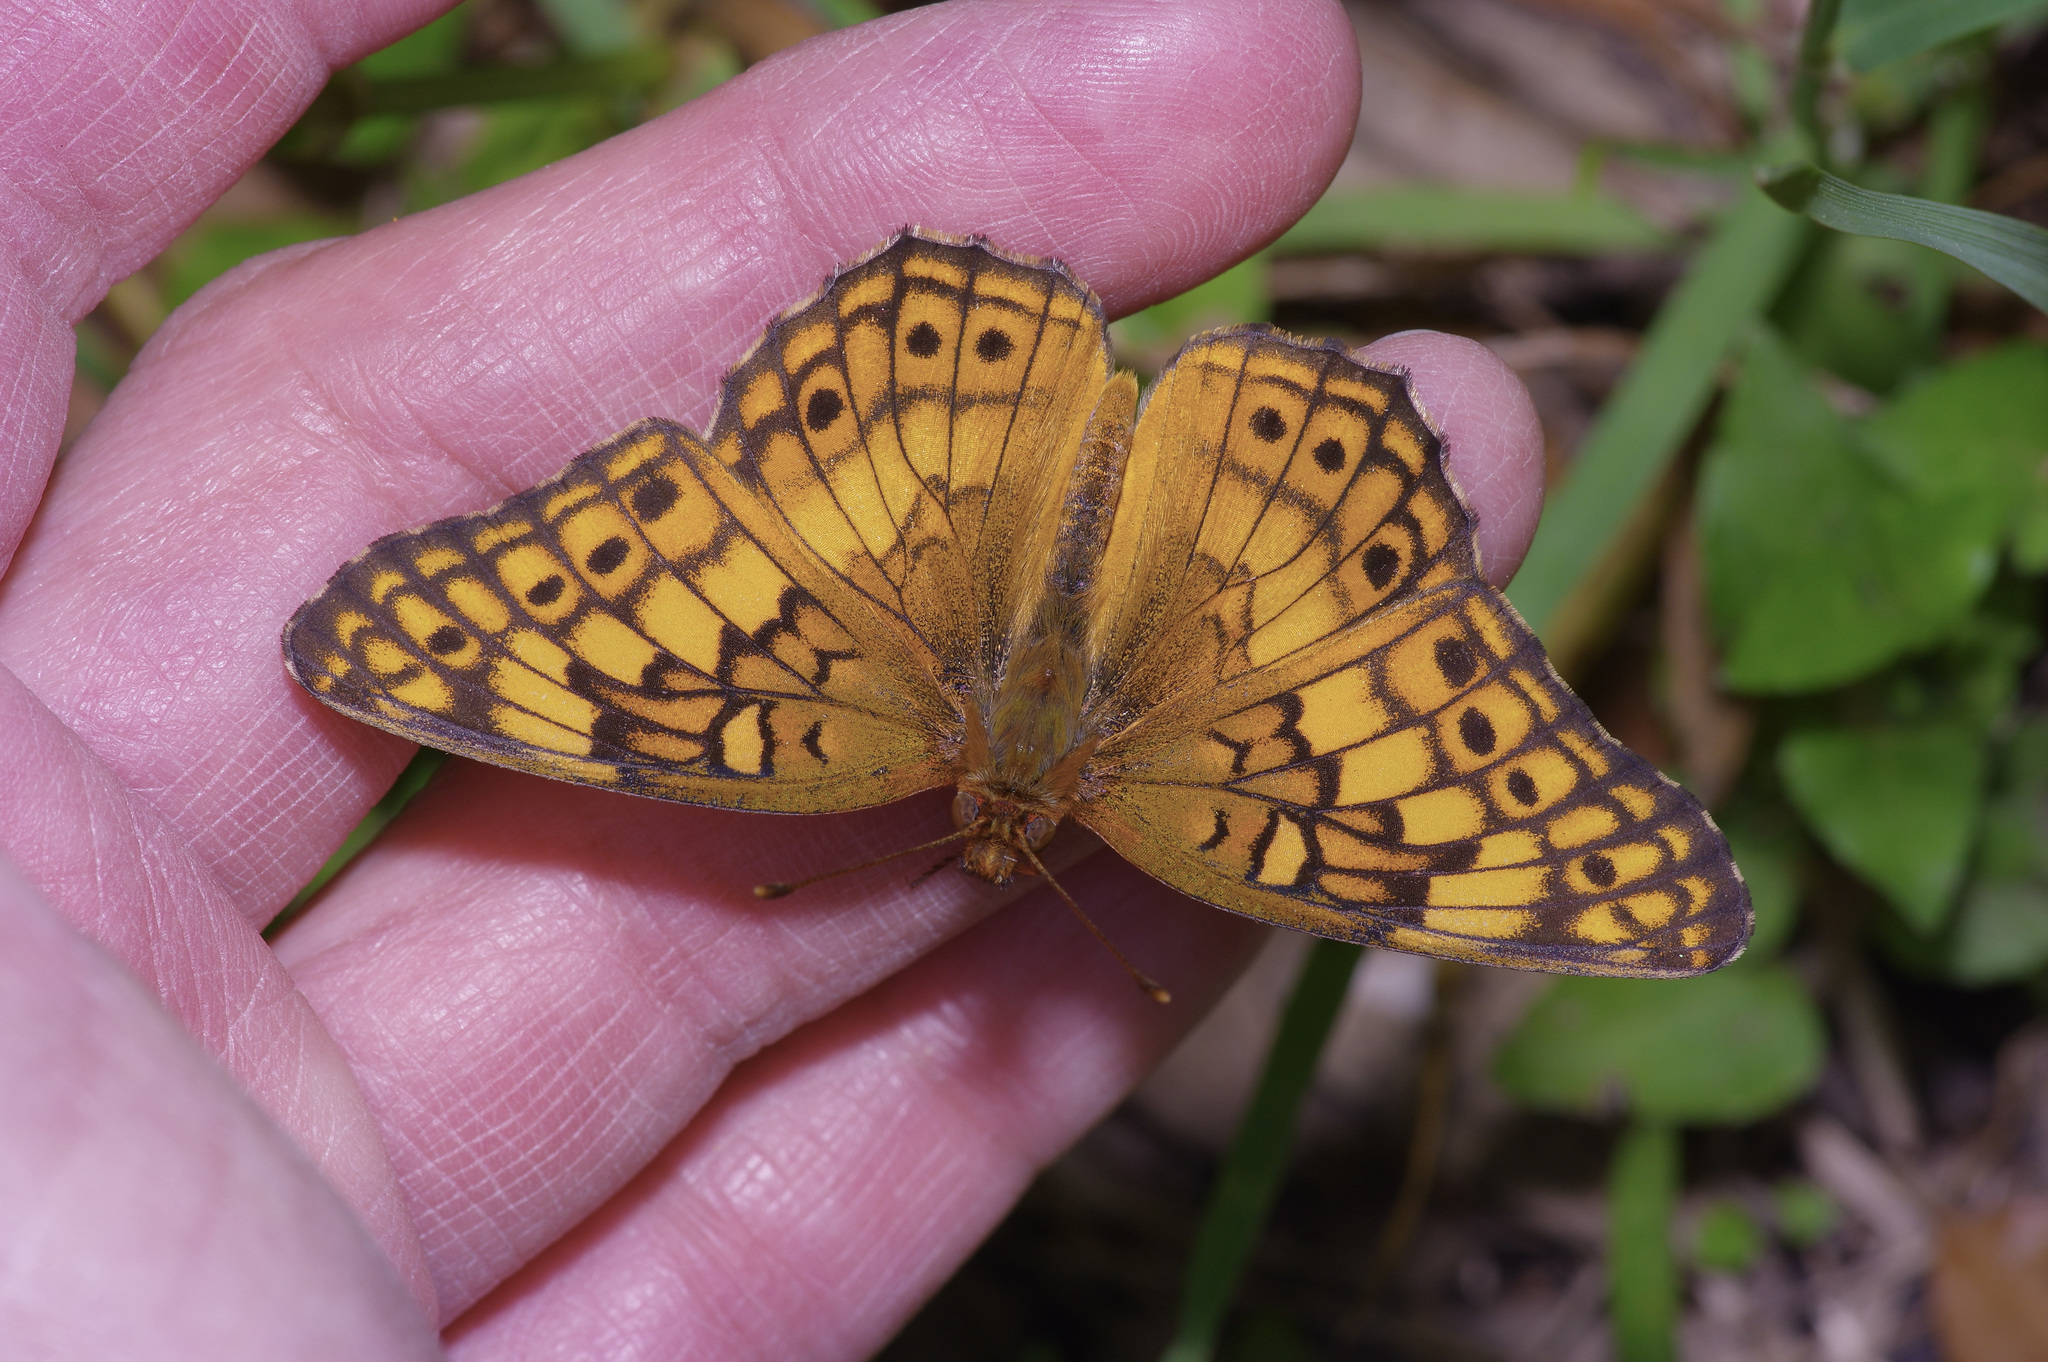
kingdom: Animalia
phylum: Arthropoda
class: Insecta
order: Lepidoptera
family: Nymphalidae
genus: Euptoieta
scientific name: Euptoieta claudia
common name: Variegated fritillary
